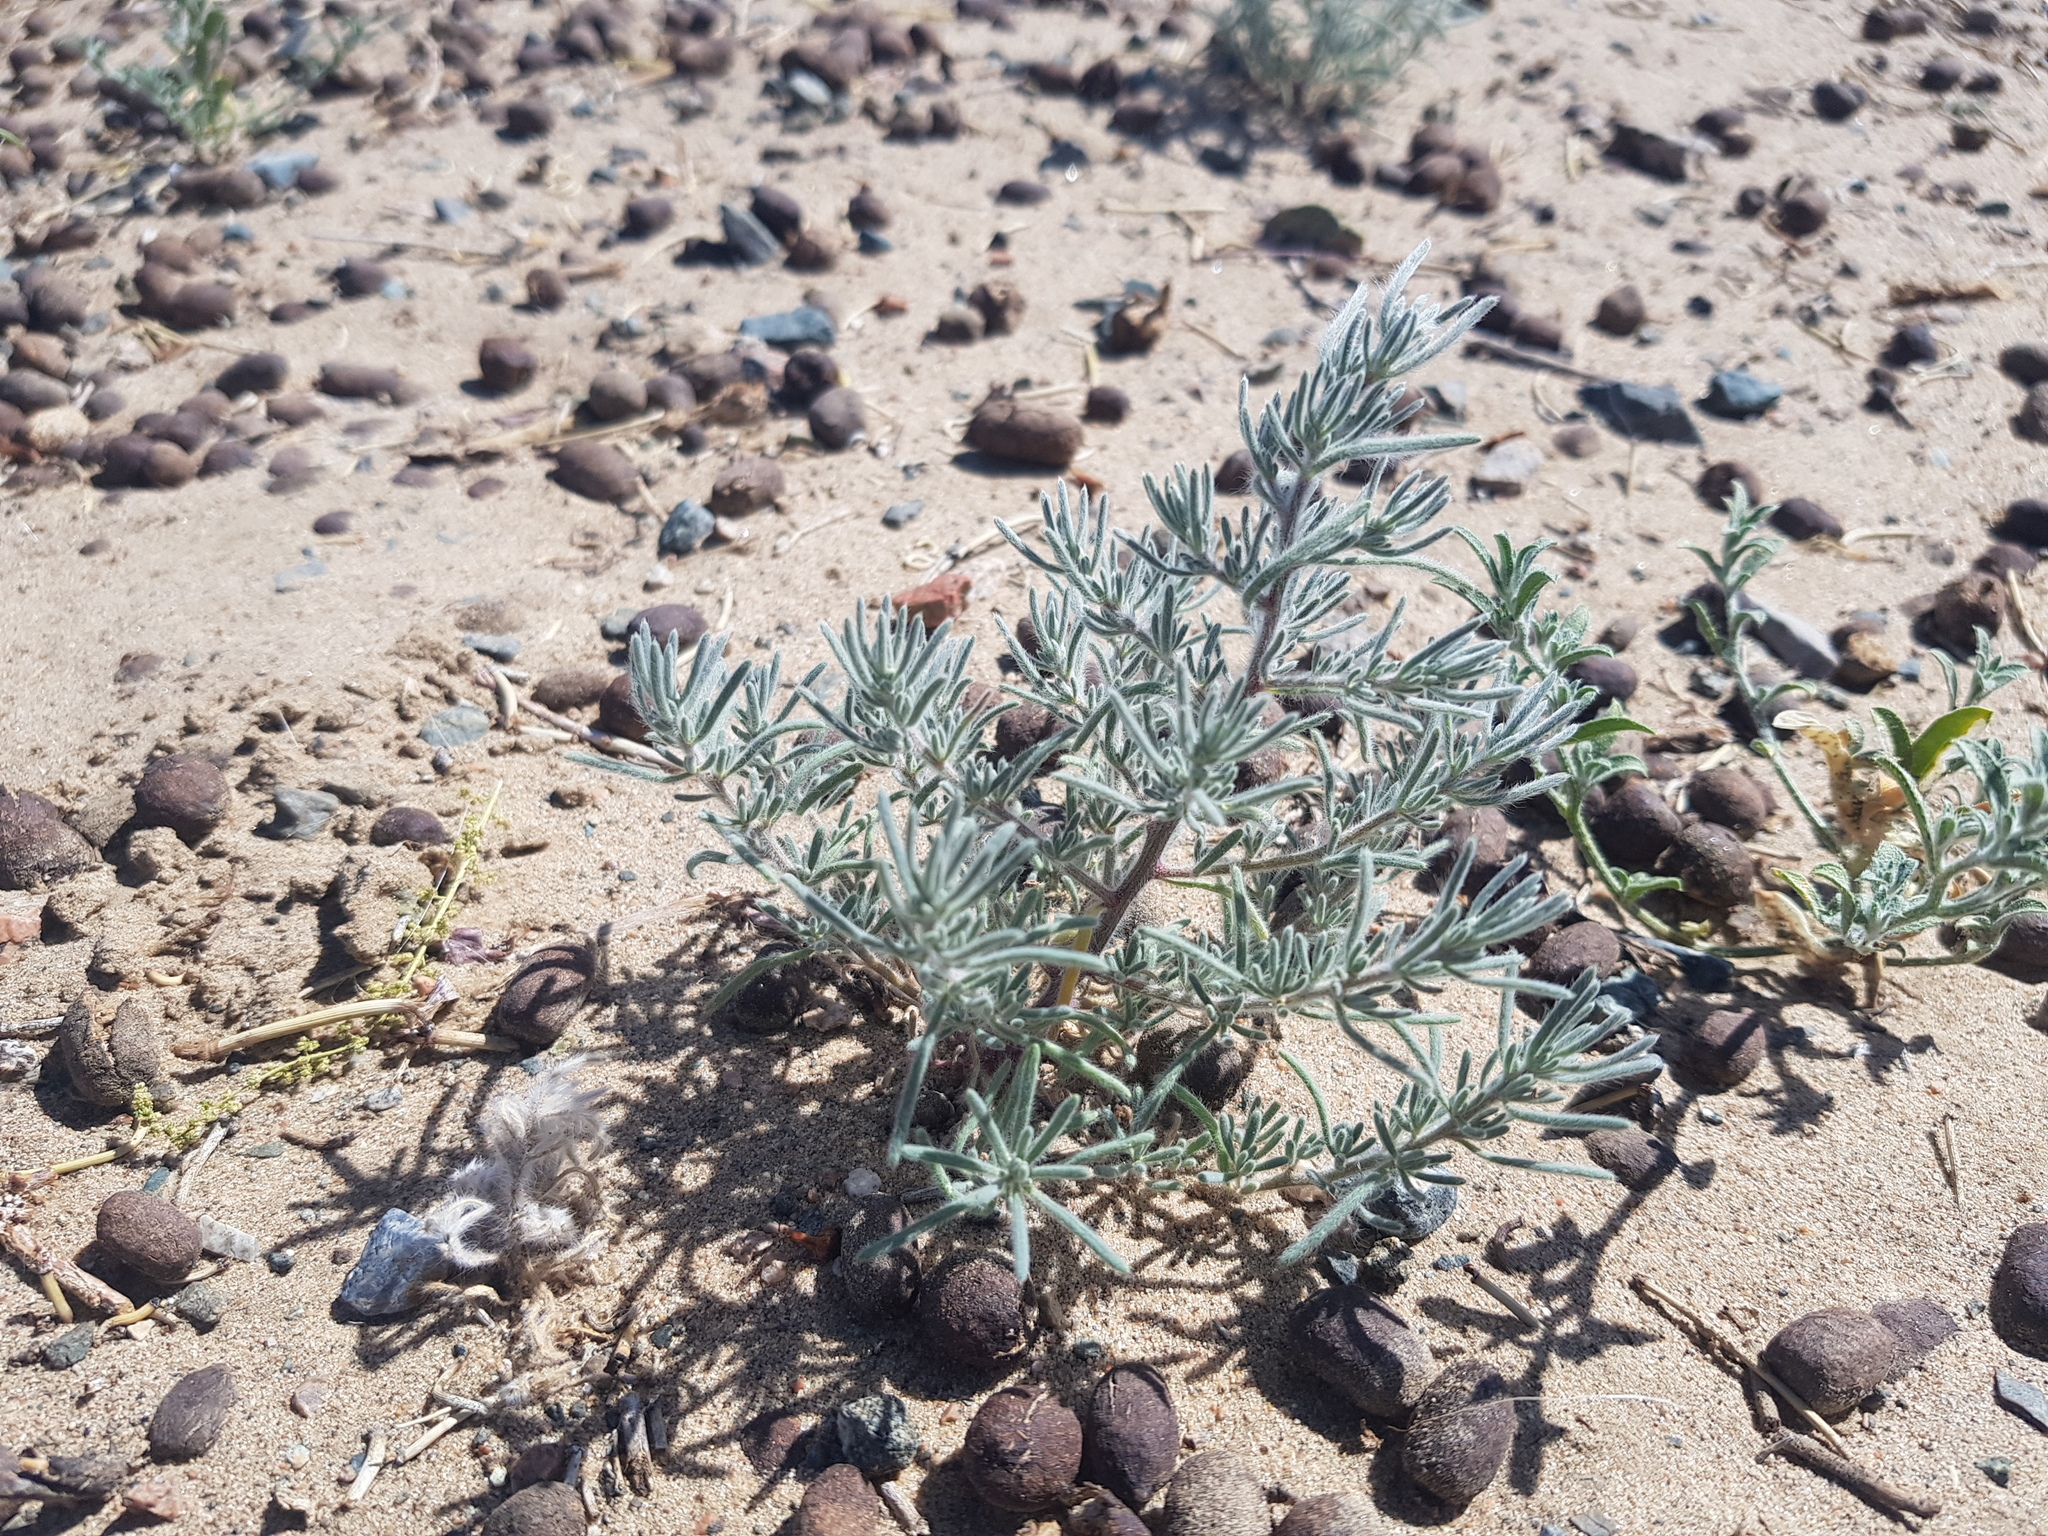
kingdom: Plantae
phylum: Tracheophyta
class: Magnoliopsida
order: Caryophyllales
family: Amaranthaceae
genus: Grubovia
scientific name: Grubovia dasyphylla
